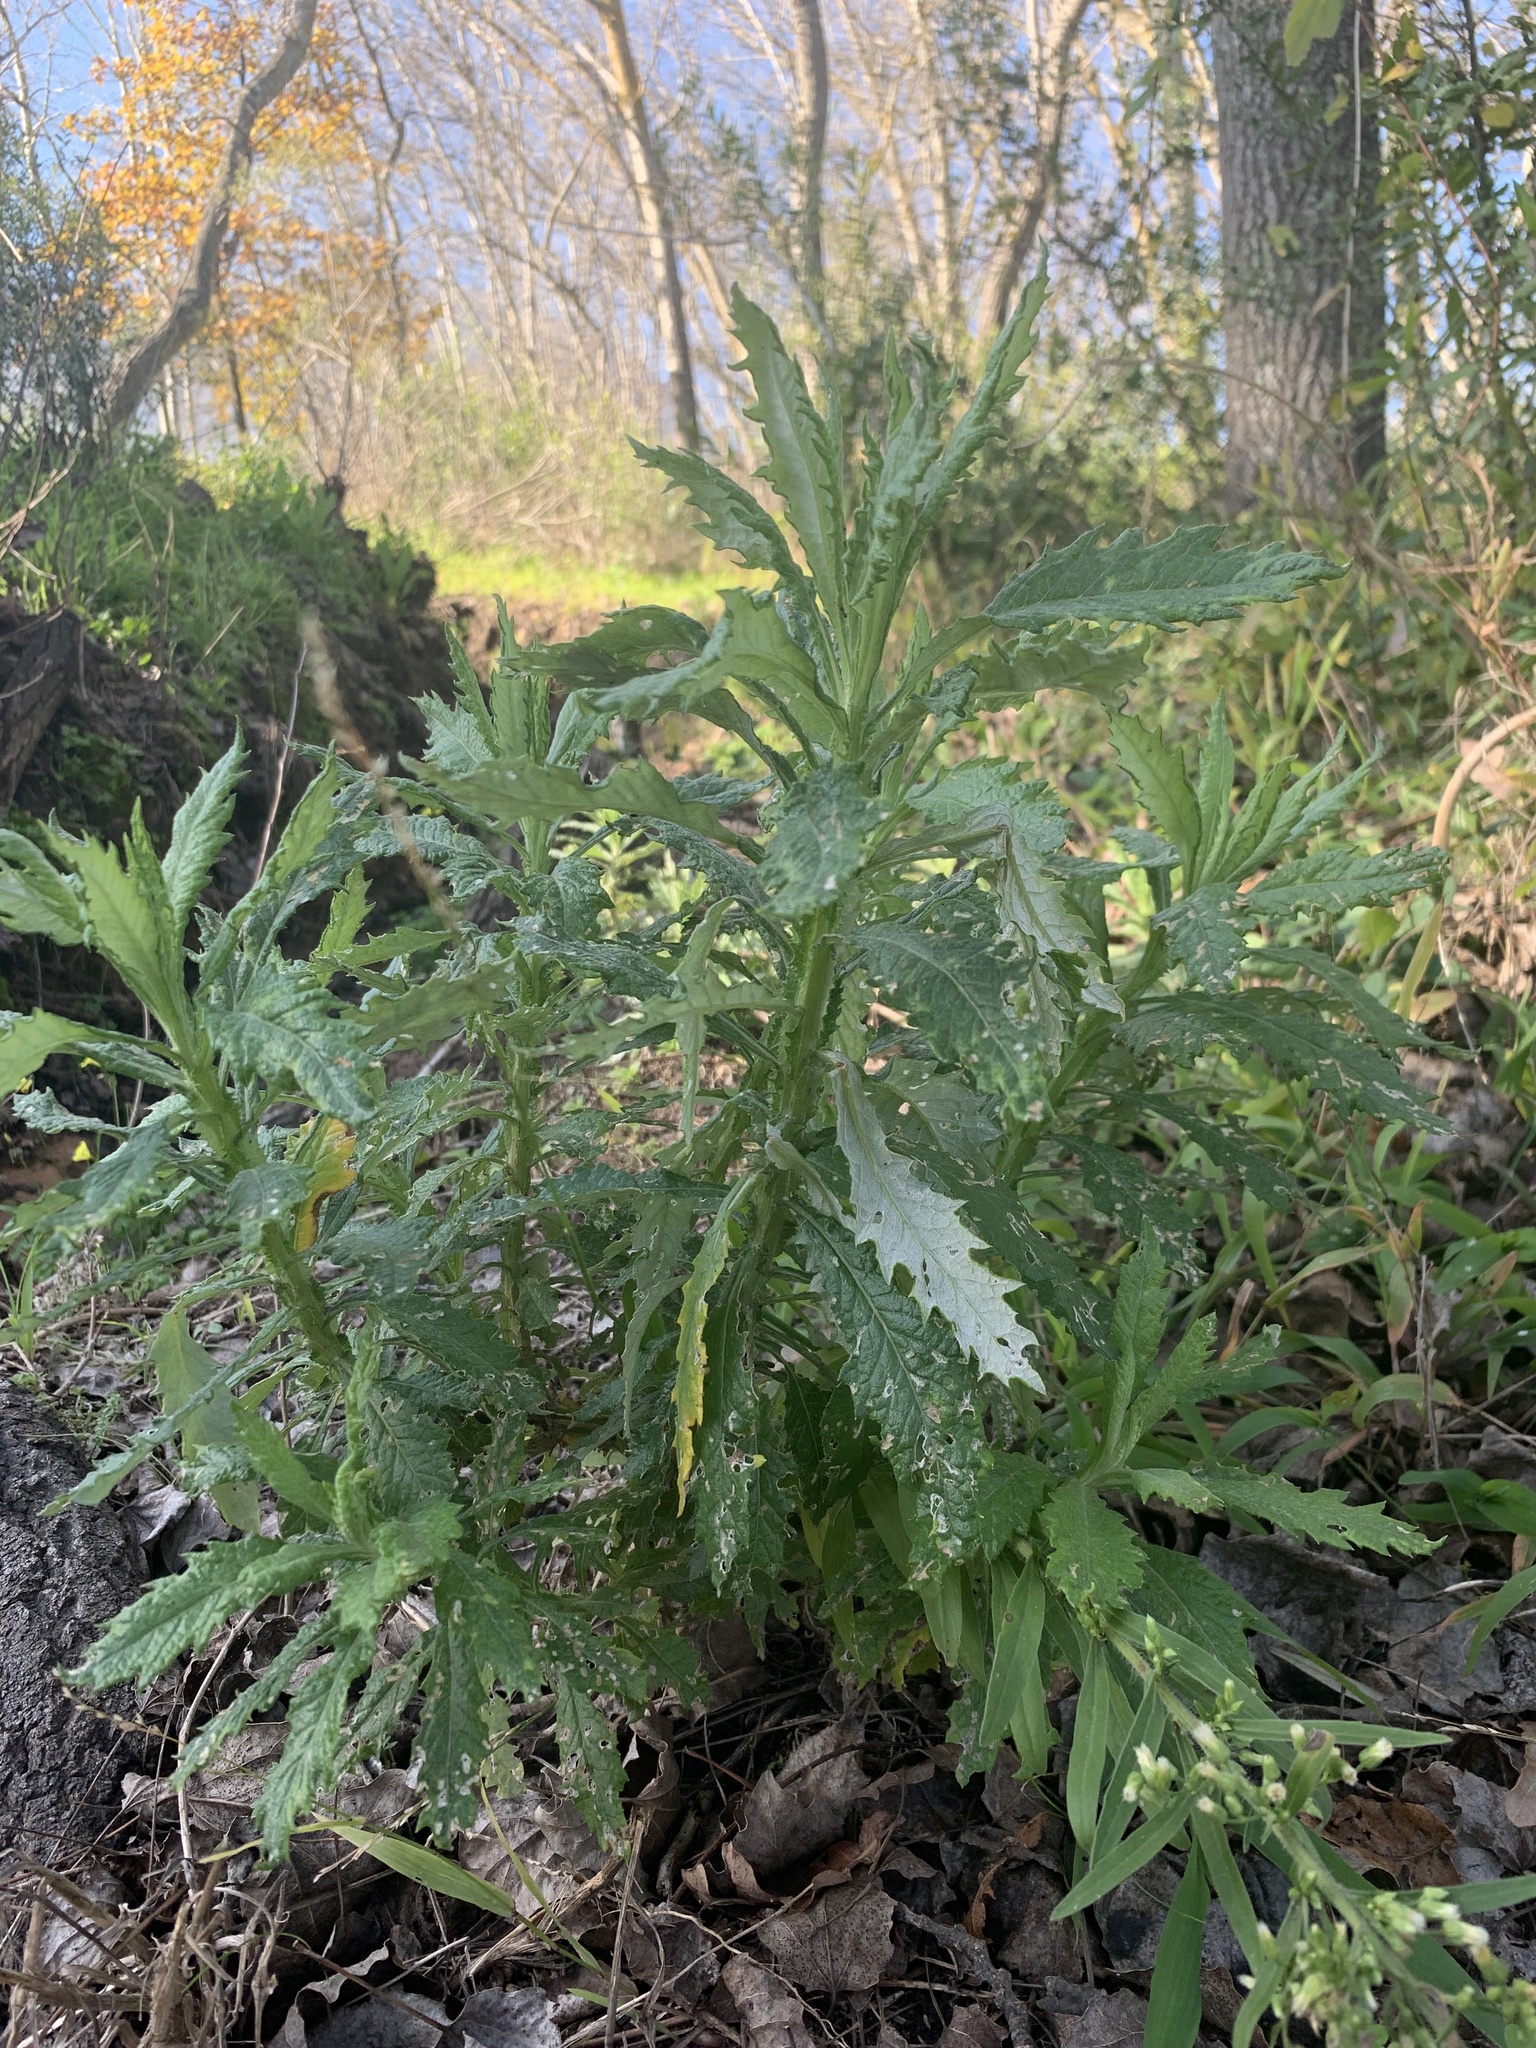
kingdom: Plantae
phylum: Tracheophyta
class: Magnoliopsida
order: Asterales
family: Asteraceae
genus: Senecio
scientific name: Senecio pterophorus
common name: Shoddy ragwort
